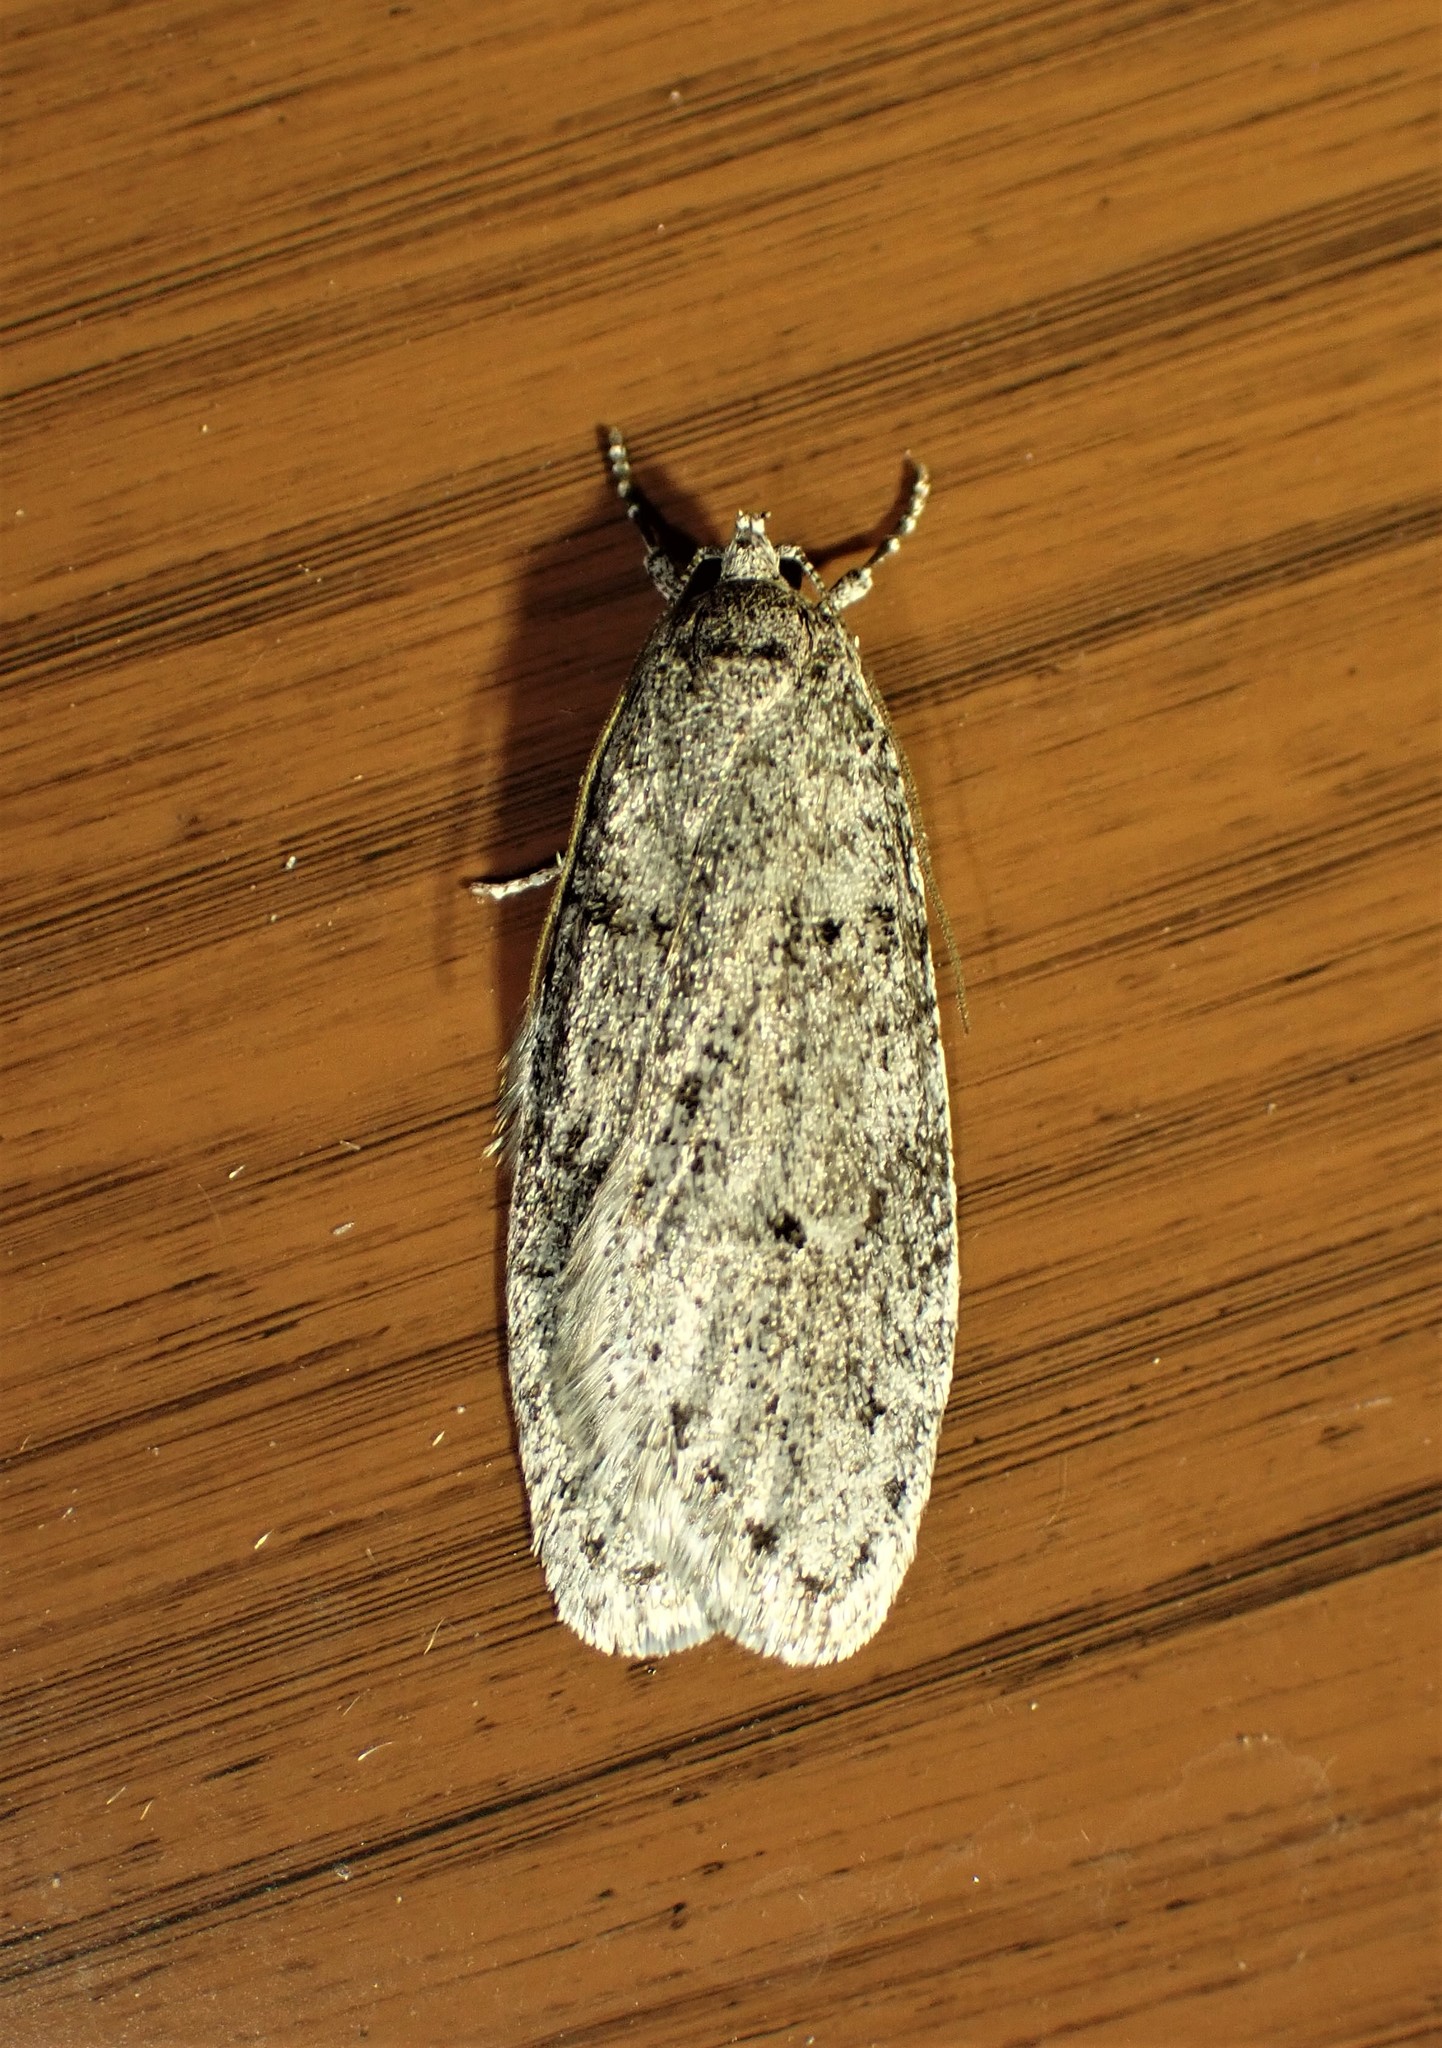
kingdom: Animalia
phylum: Arthropoda
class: Insecta
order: Lepidoptera
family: Depressariidae
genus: Semioscopis
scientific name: Semioscopis inornata
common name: Poplar micromoth
